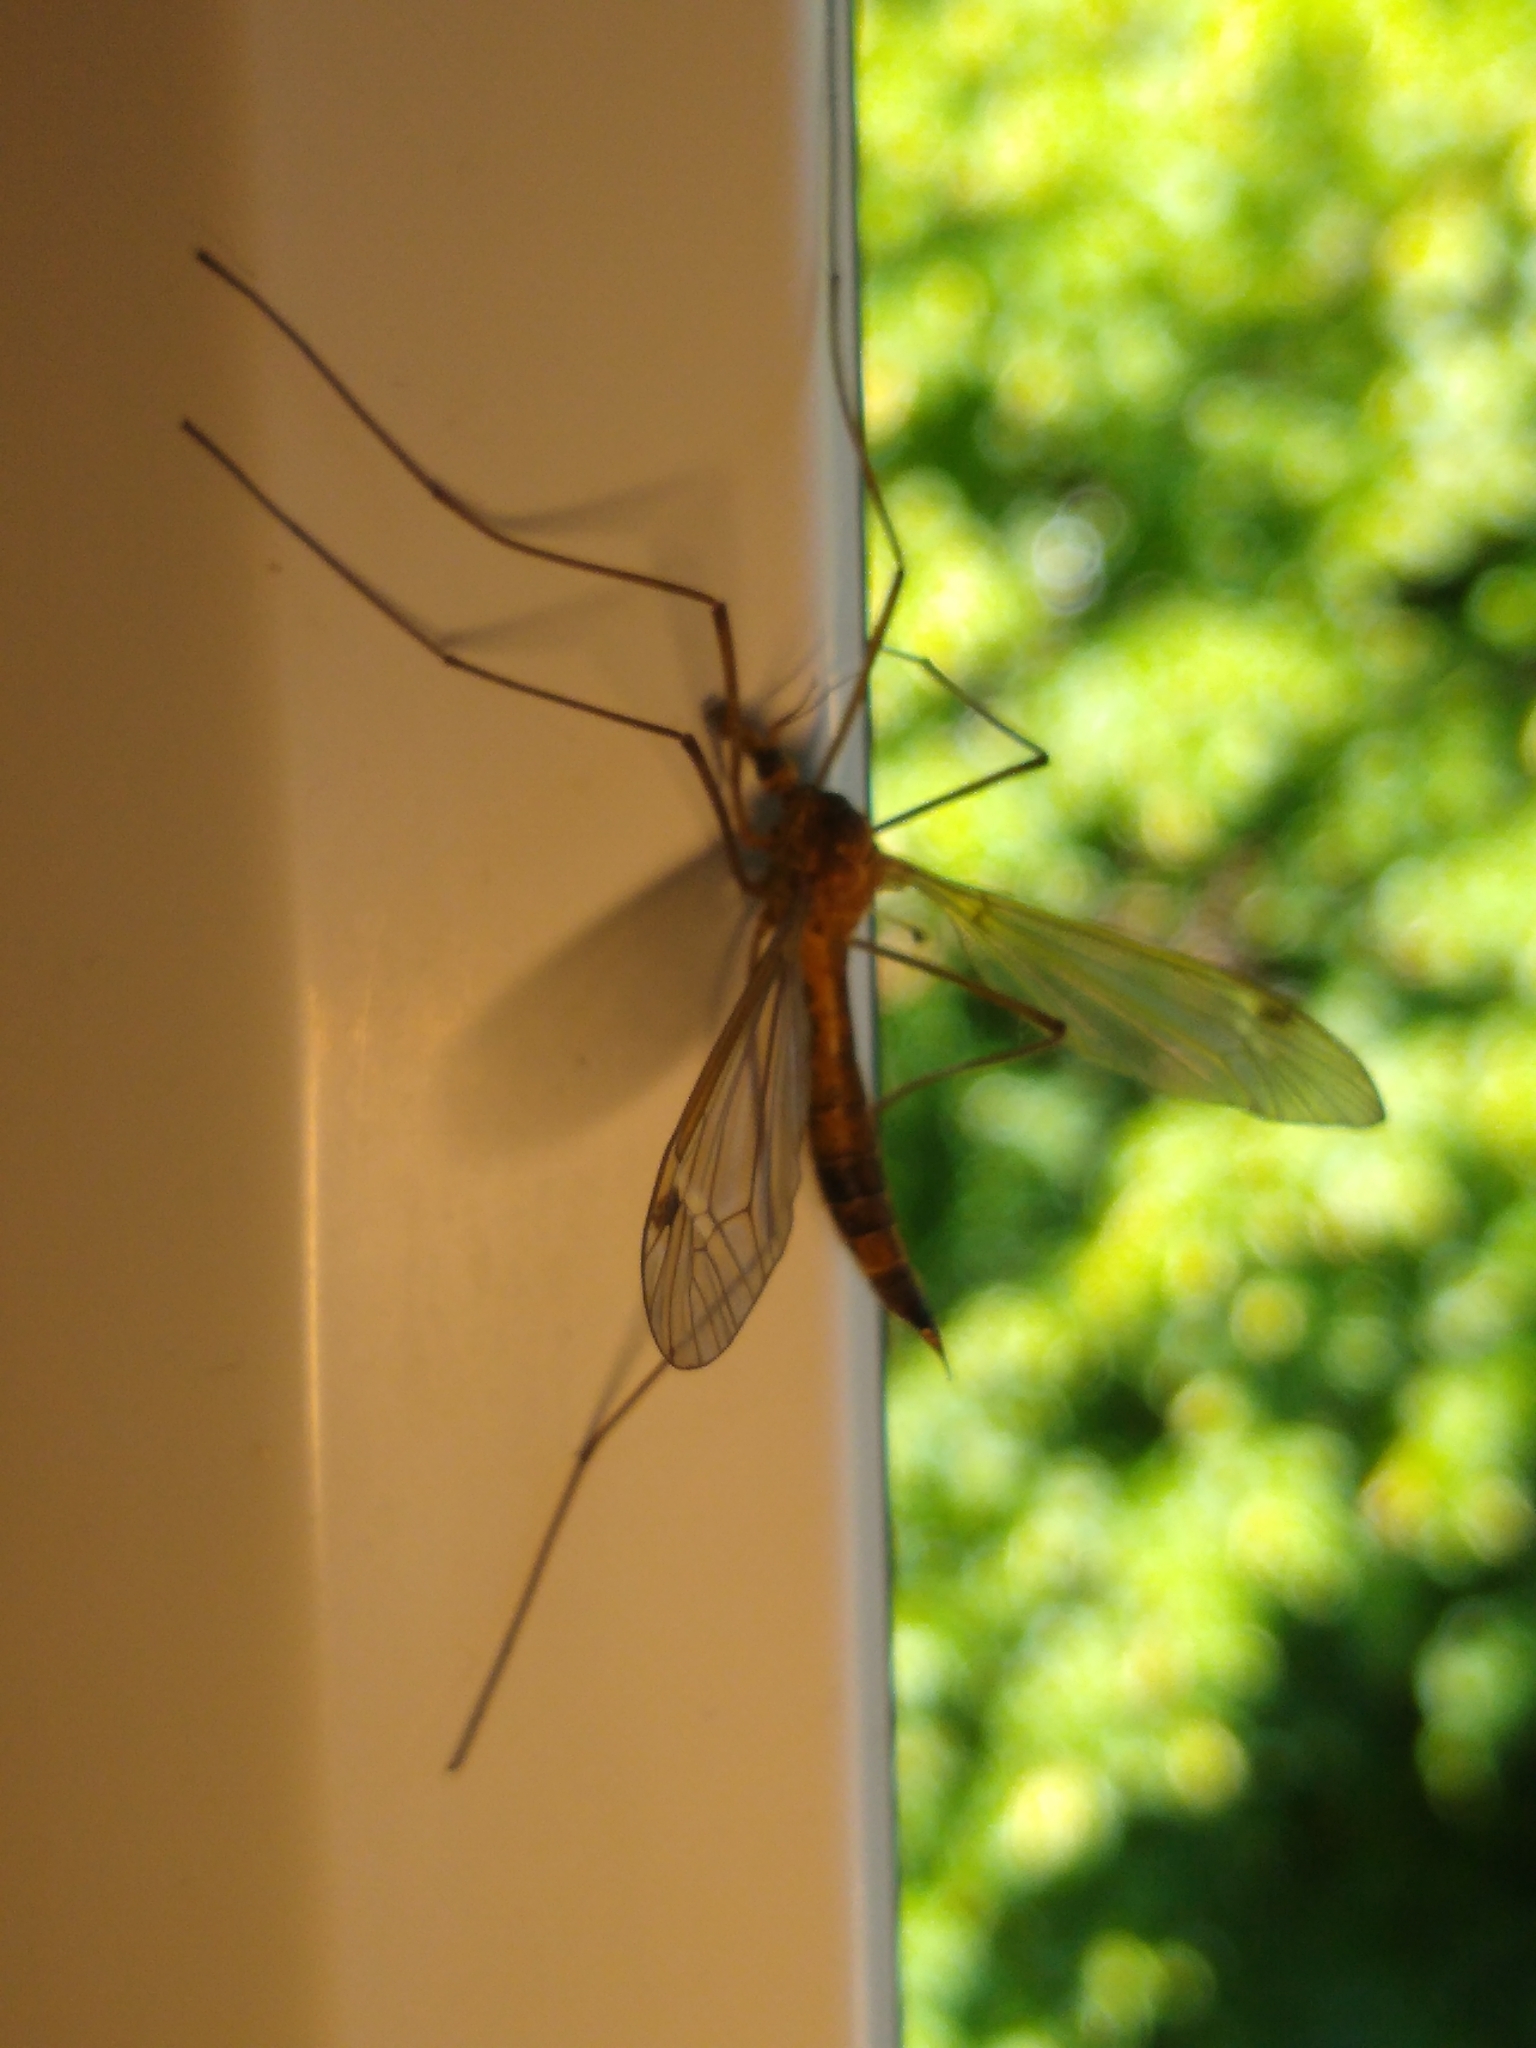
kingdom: Animalia
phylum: Arthropoda
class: Insecta
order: Diptera
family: Tipulidae
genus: Tipula
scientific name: Tipula paludosa
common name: European cranefly
